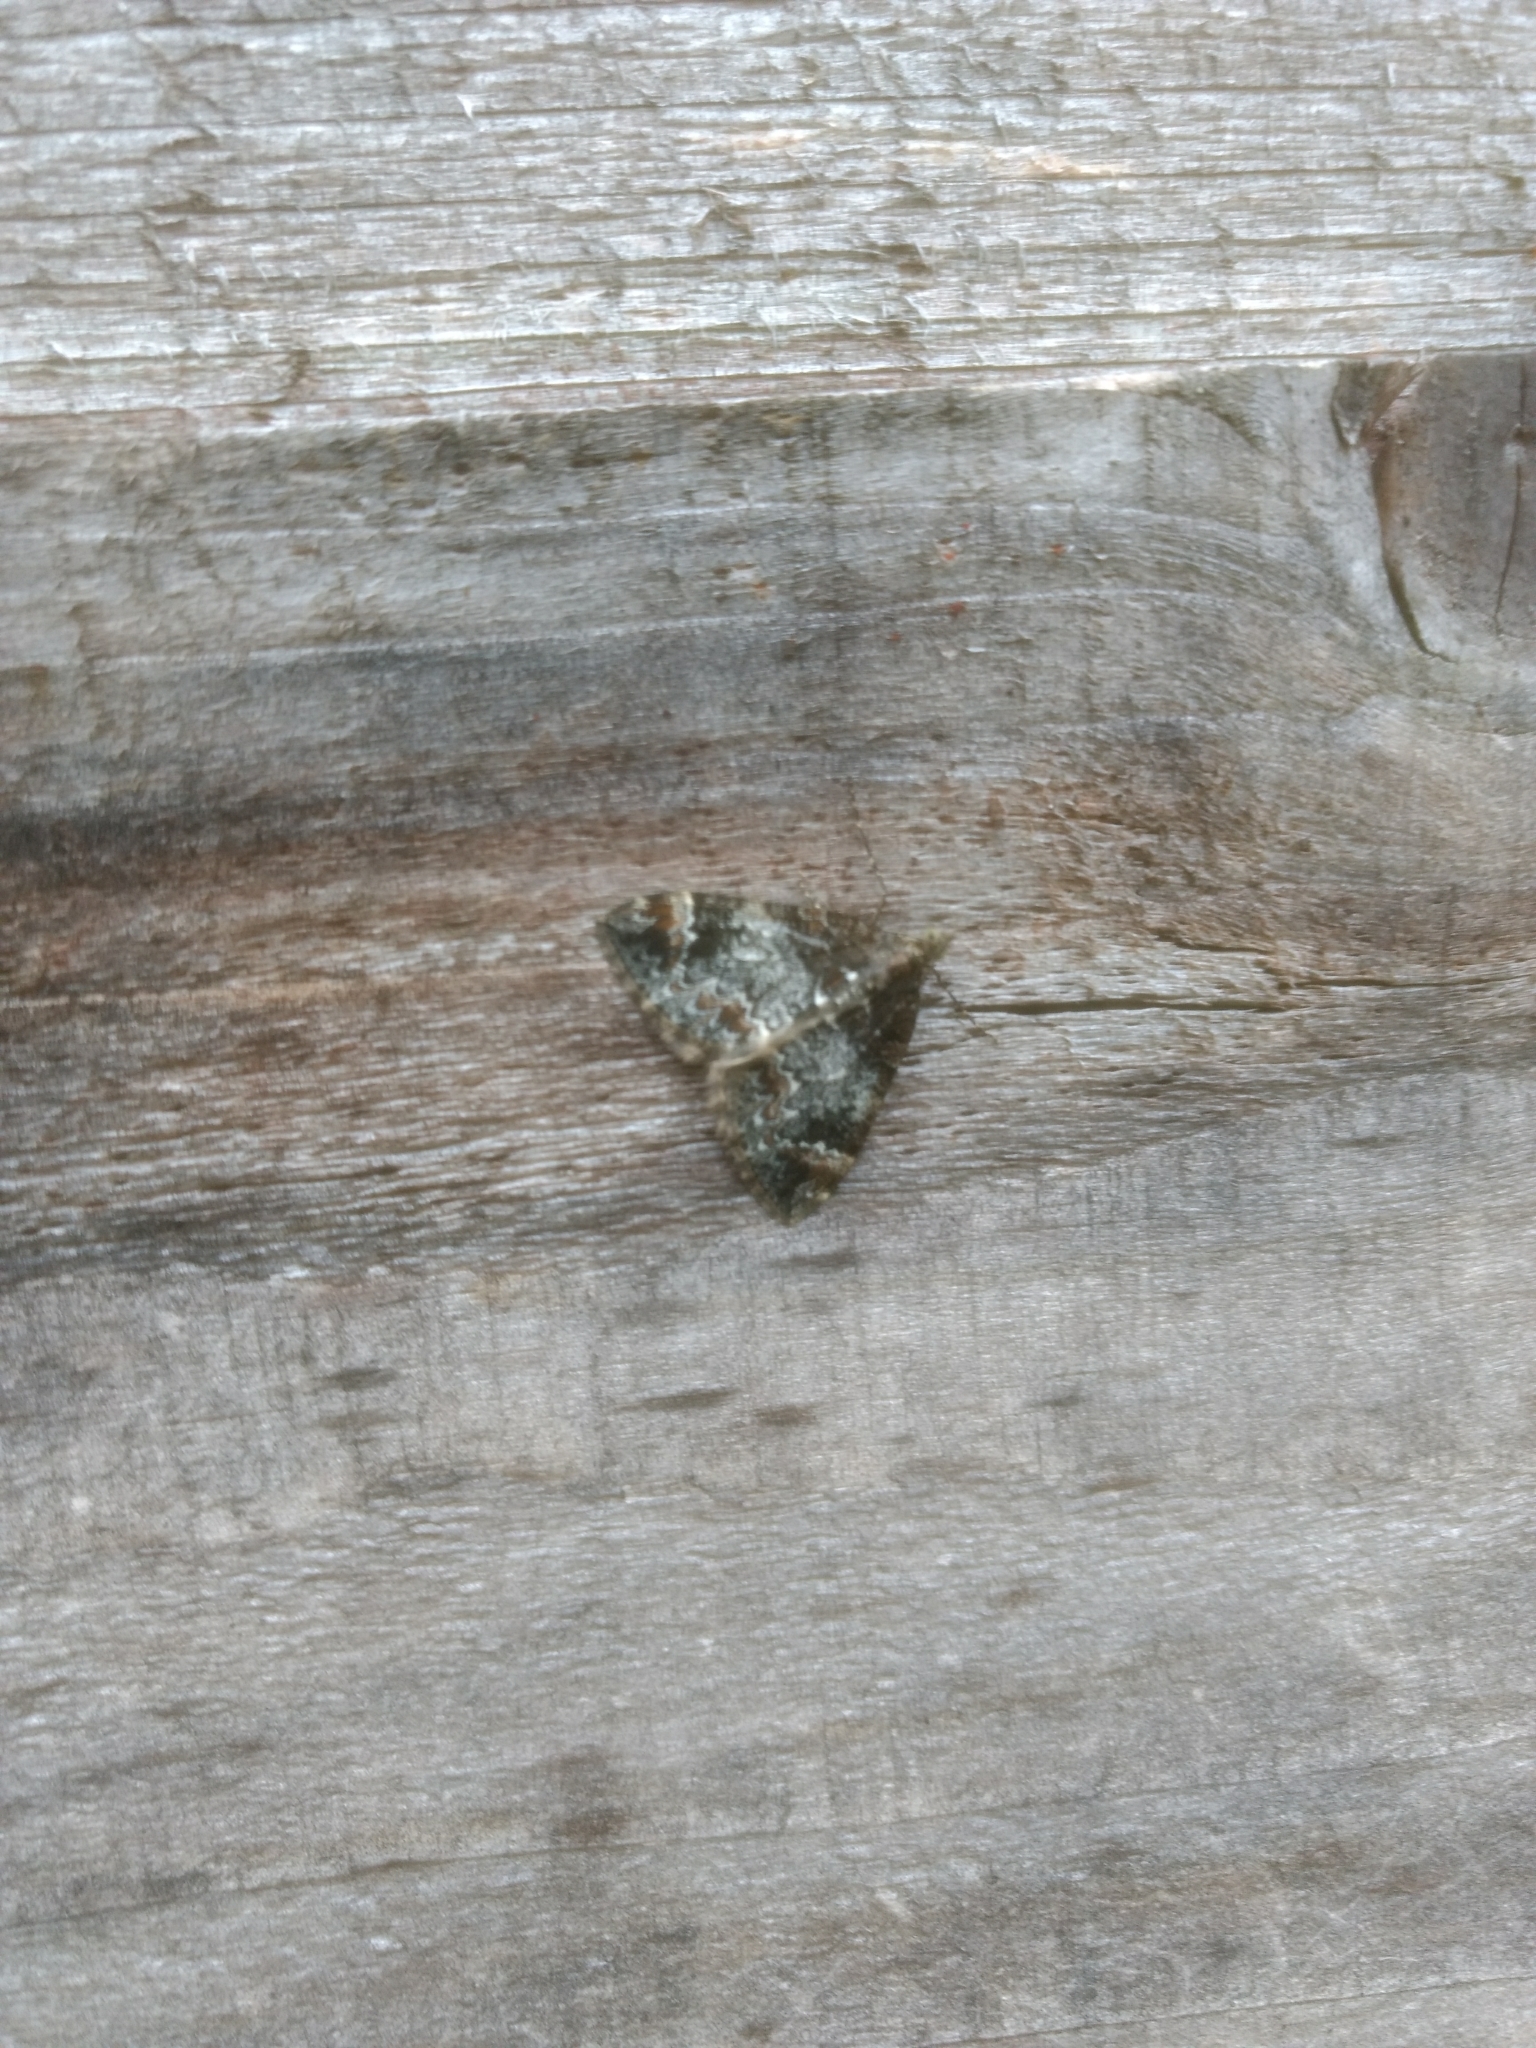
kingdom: Animalia
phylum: Arthropoda
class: Insecta
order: Lepidoptera
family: Geometridae
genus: Dysstroma
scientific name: Dysstroma citrata
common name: Dark marbled carpet
